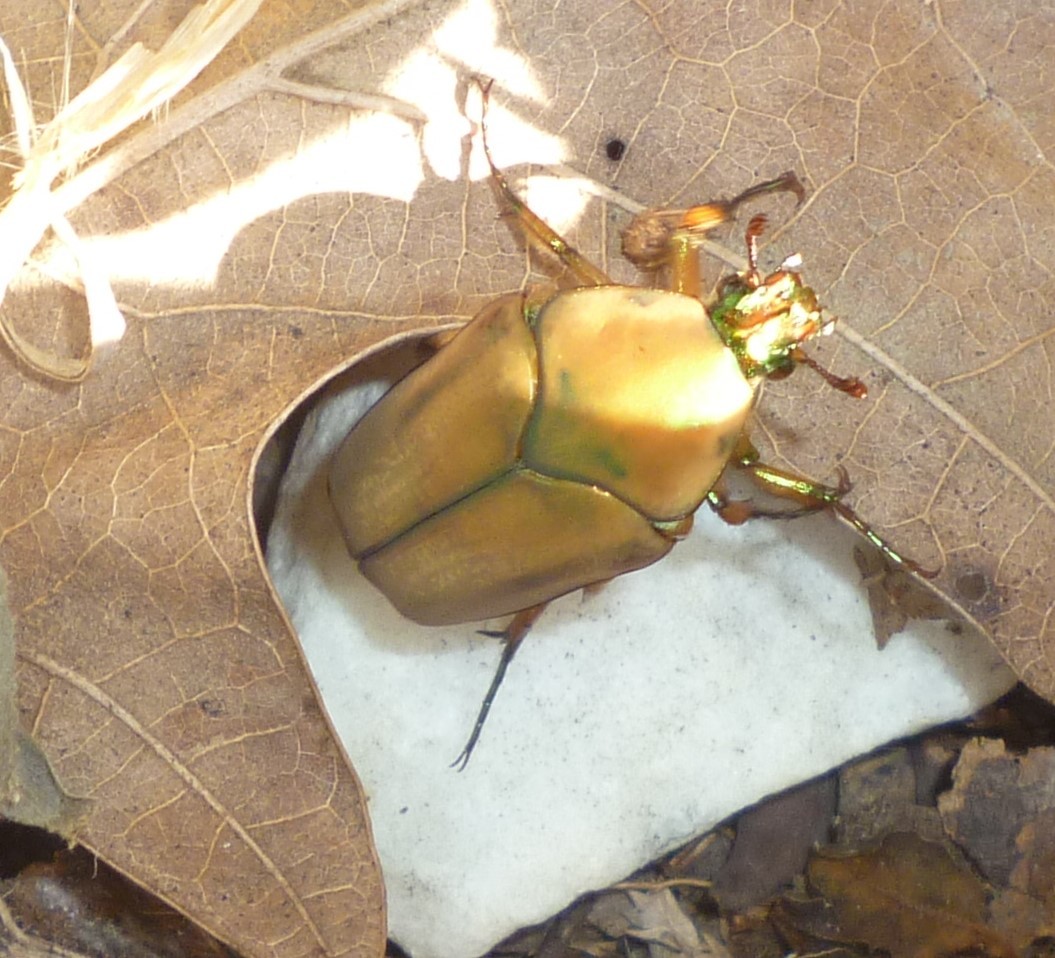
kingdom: Animalia
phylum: Arthropoda
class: Insecta
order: Coleoptera
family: Scarabaeidae
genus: Cotinis
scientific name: Cotinis nitida
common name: Common green june beetle
